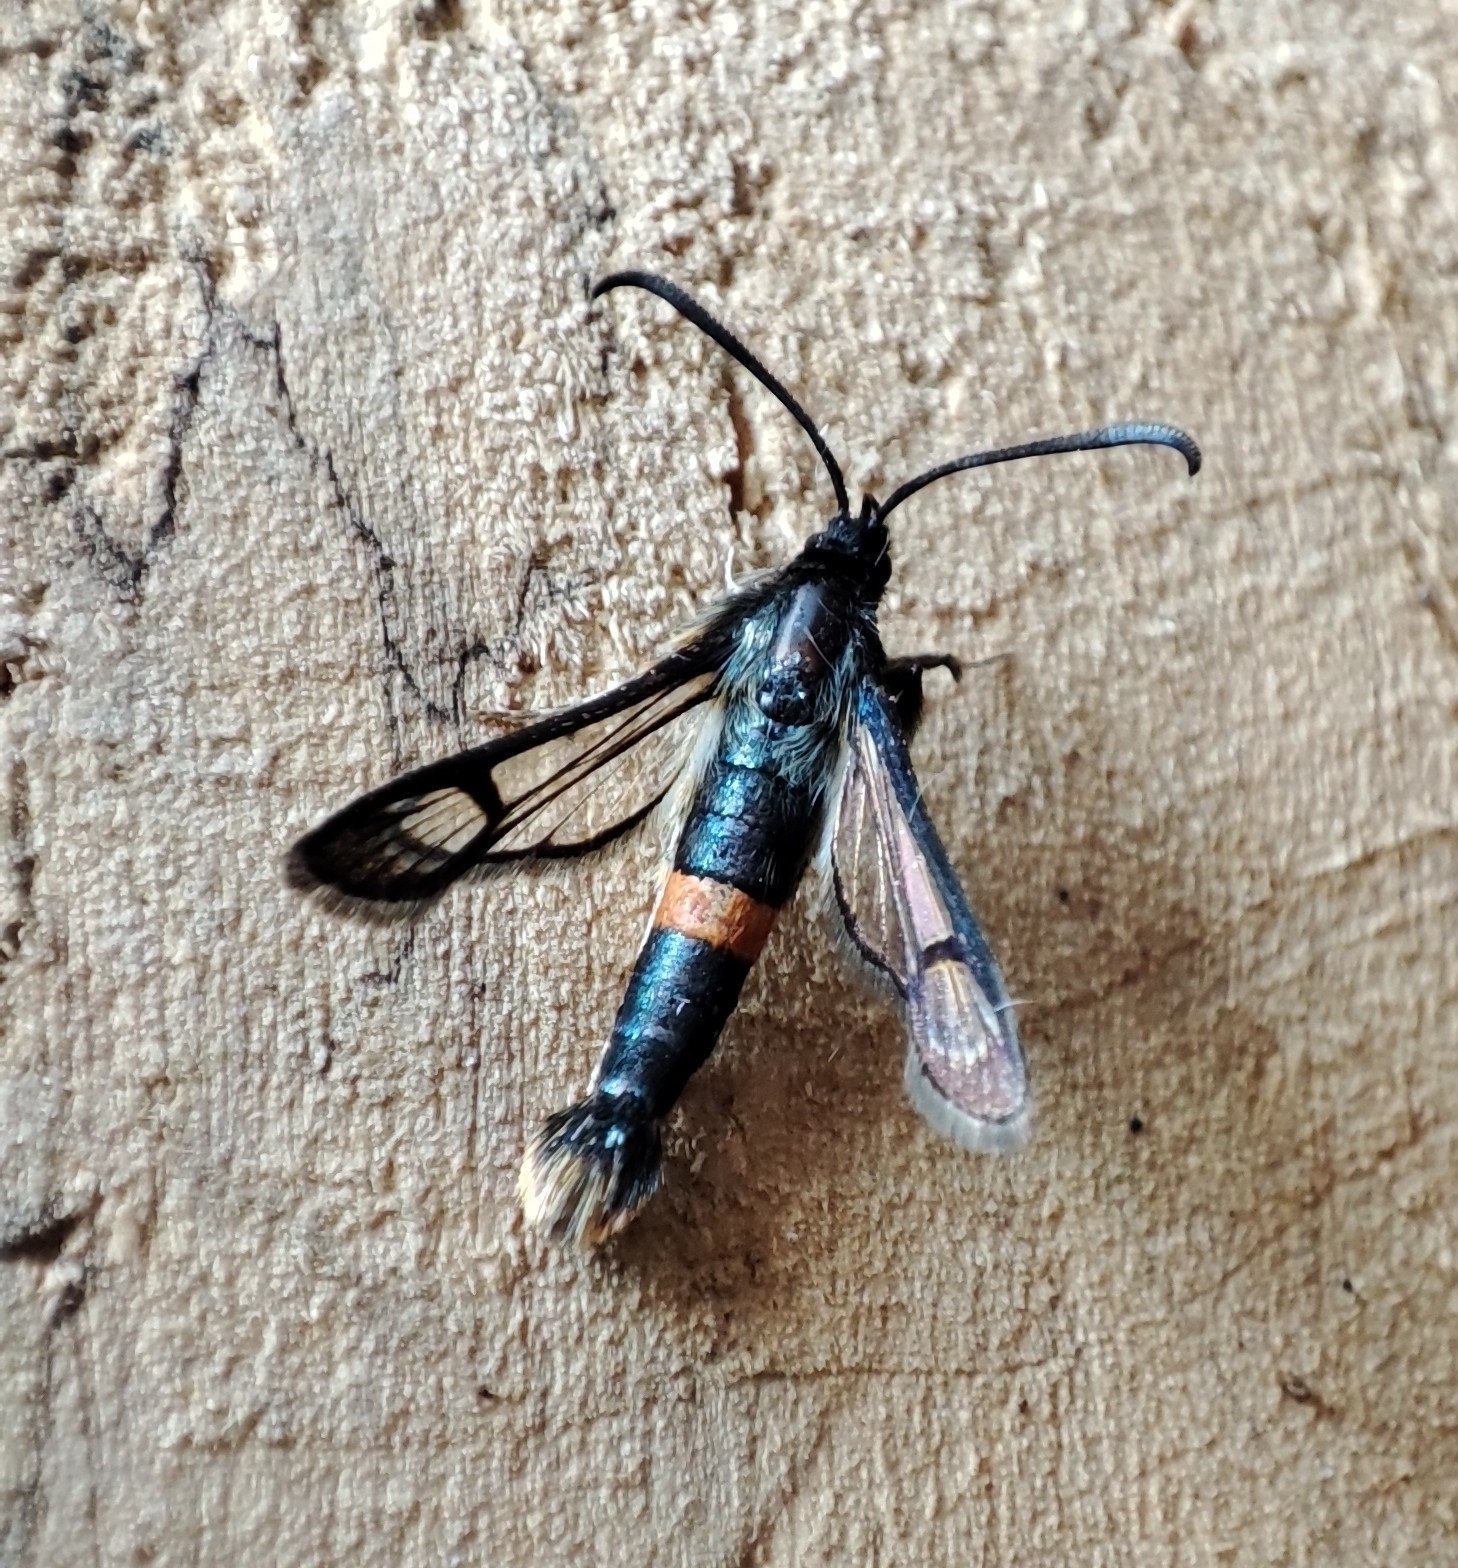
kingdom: Animalia
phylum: Arthropoda
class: Insecta
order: Lepidoptera
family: Sesiidae
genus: Synanthedon
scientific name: Synanthedon uralensis
